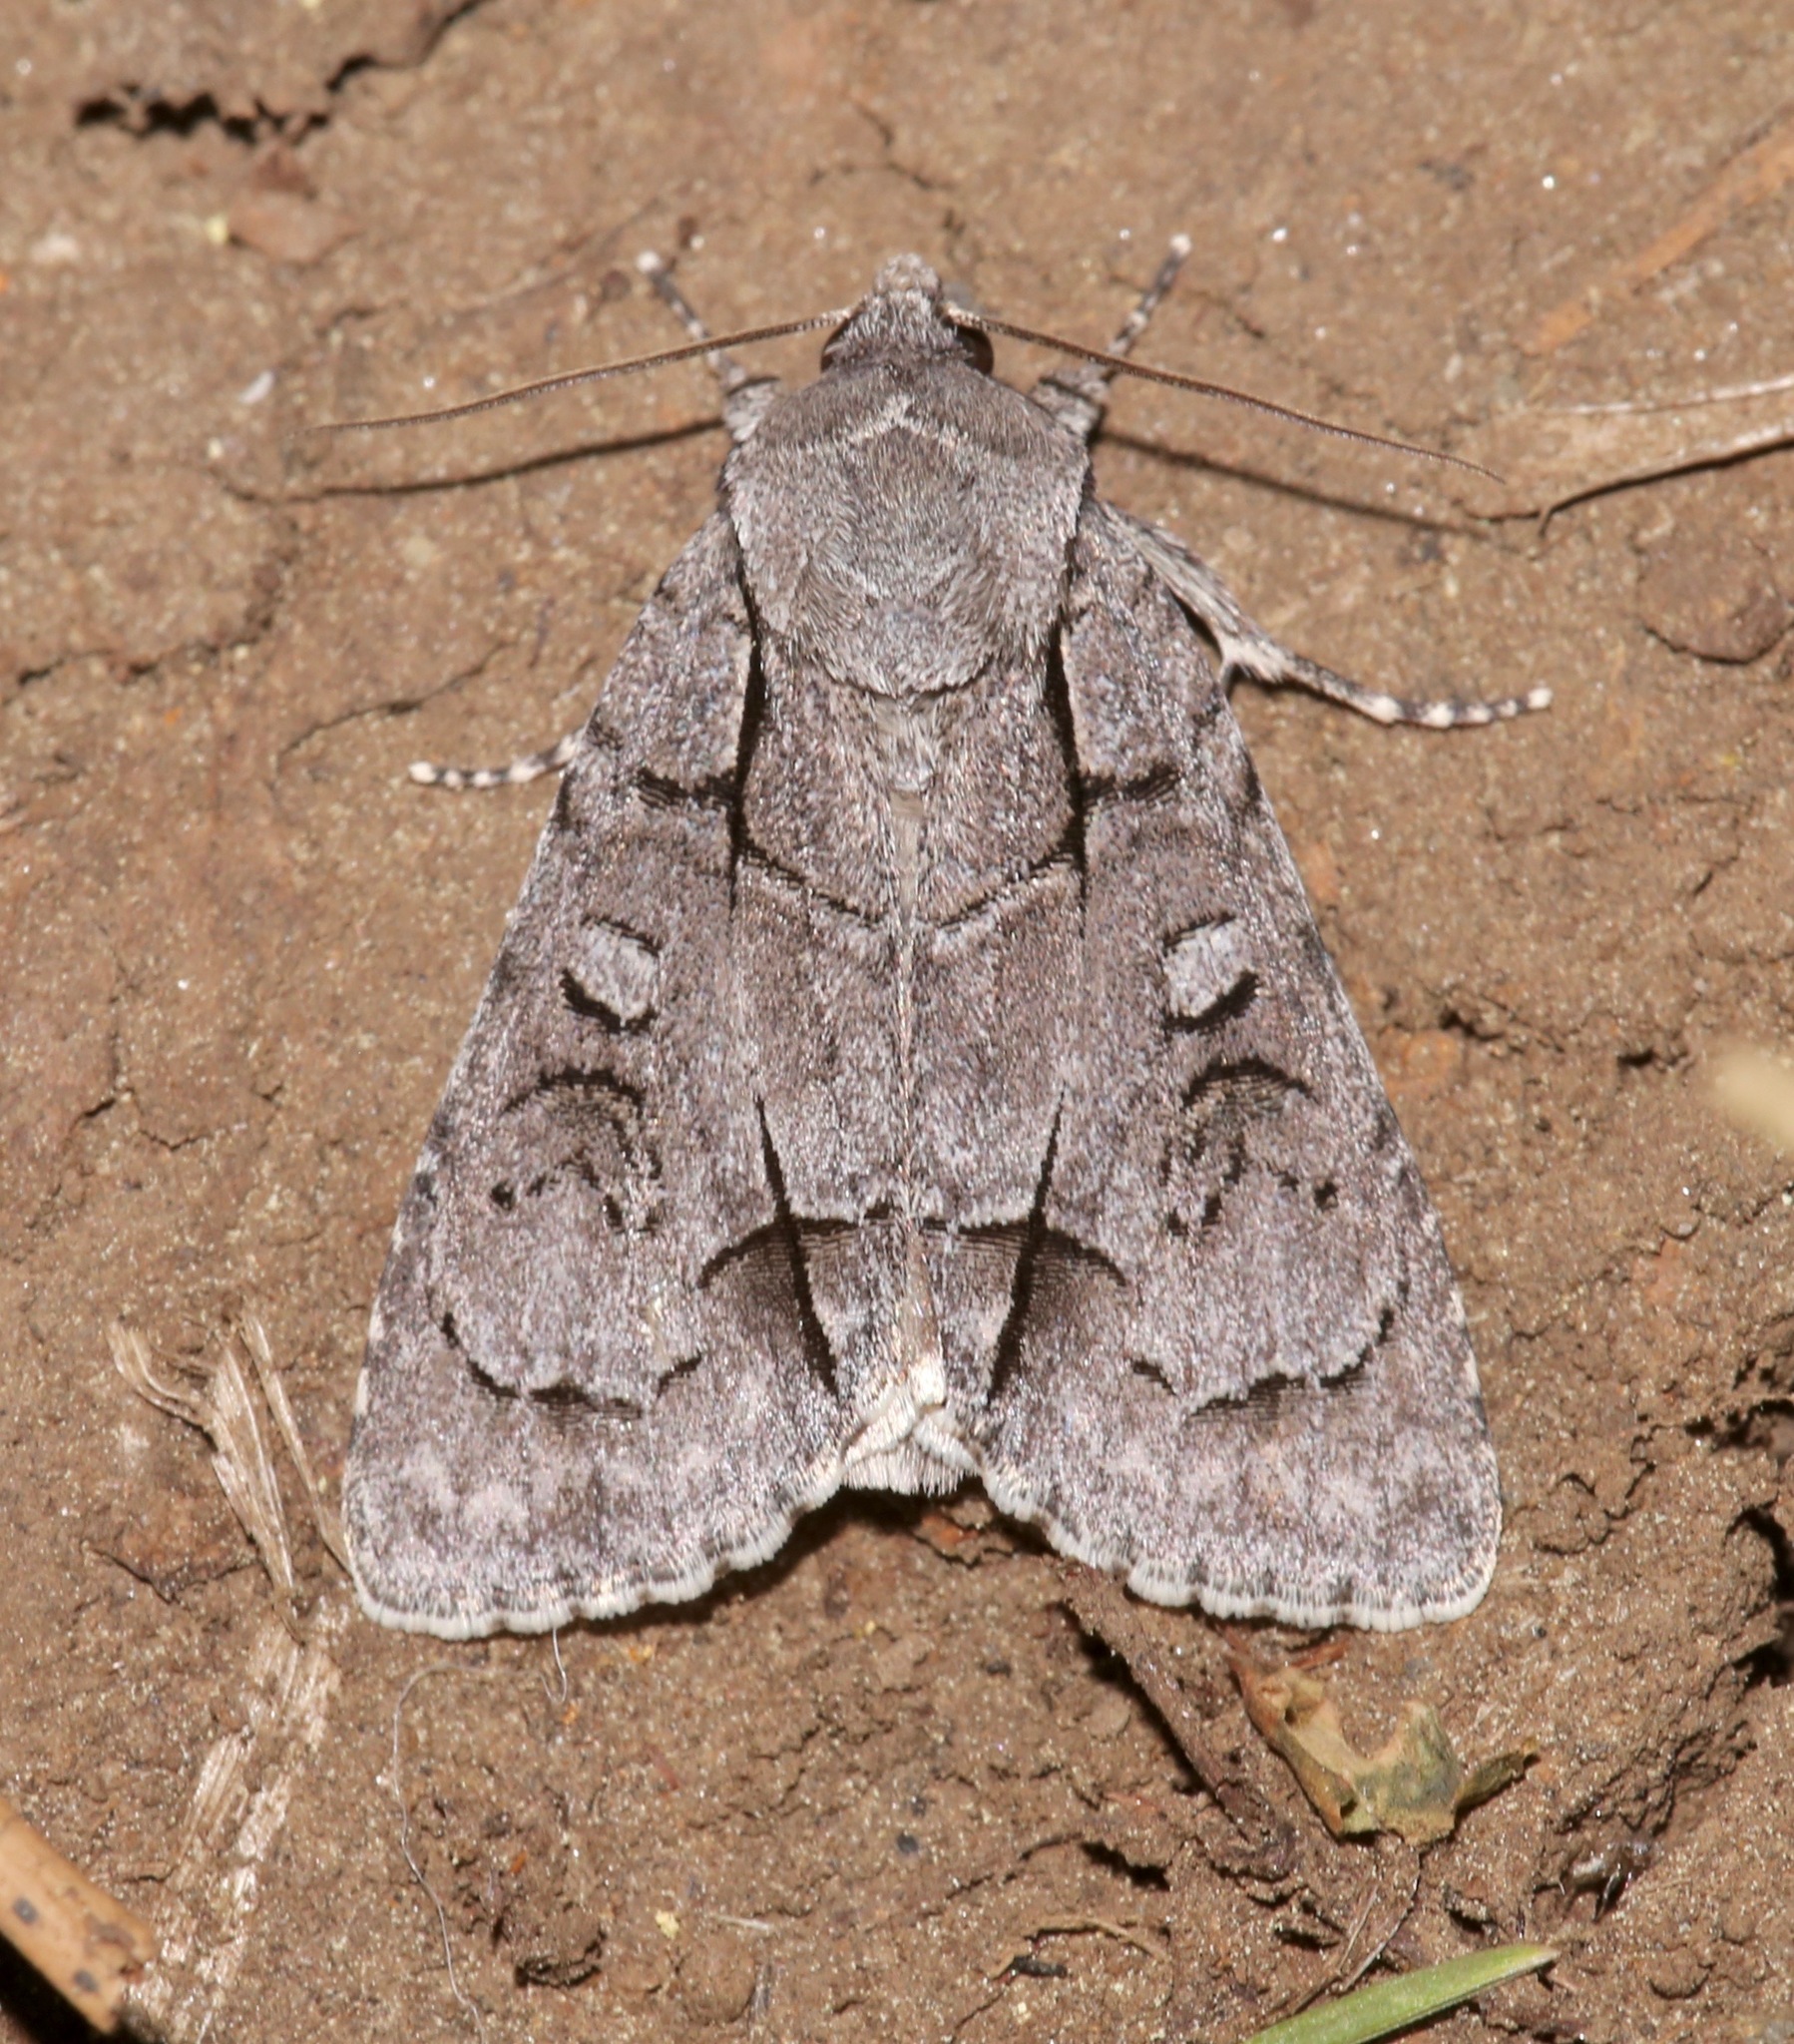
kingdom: Animalia
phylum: Arthropoda
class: Insecta
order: Lepidoptera
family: Noctuidae
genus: Acronicta
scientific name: Acronicta radcliffei
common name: Radcliffe's dagger
